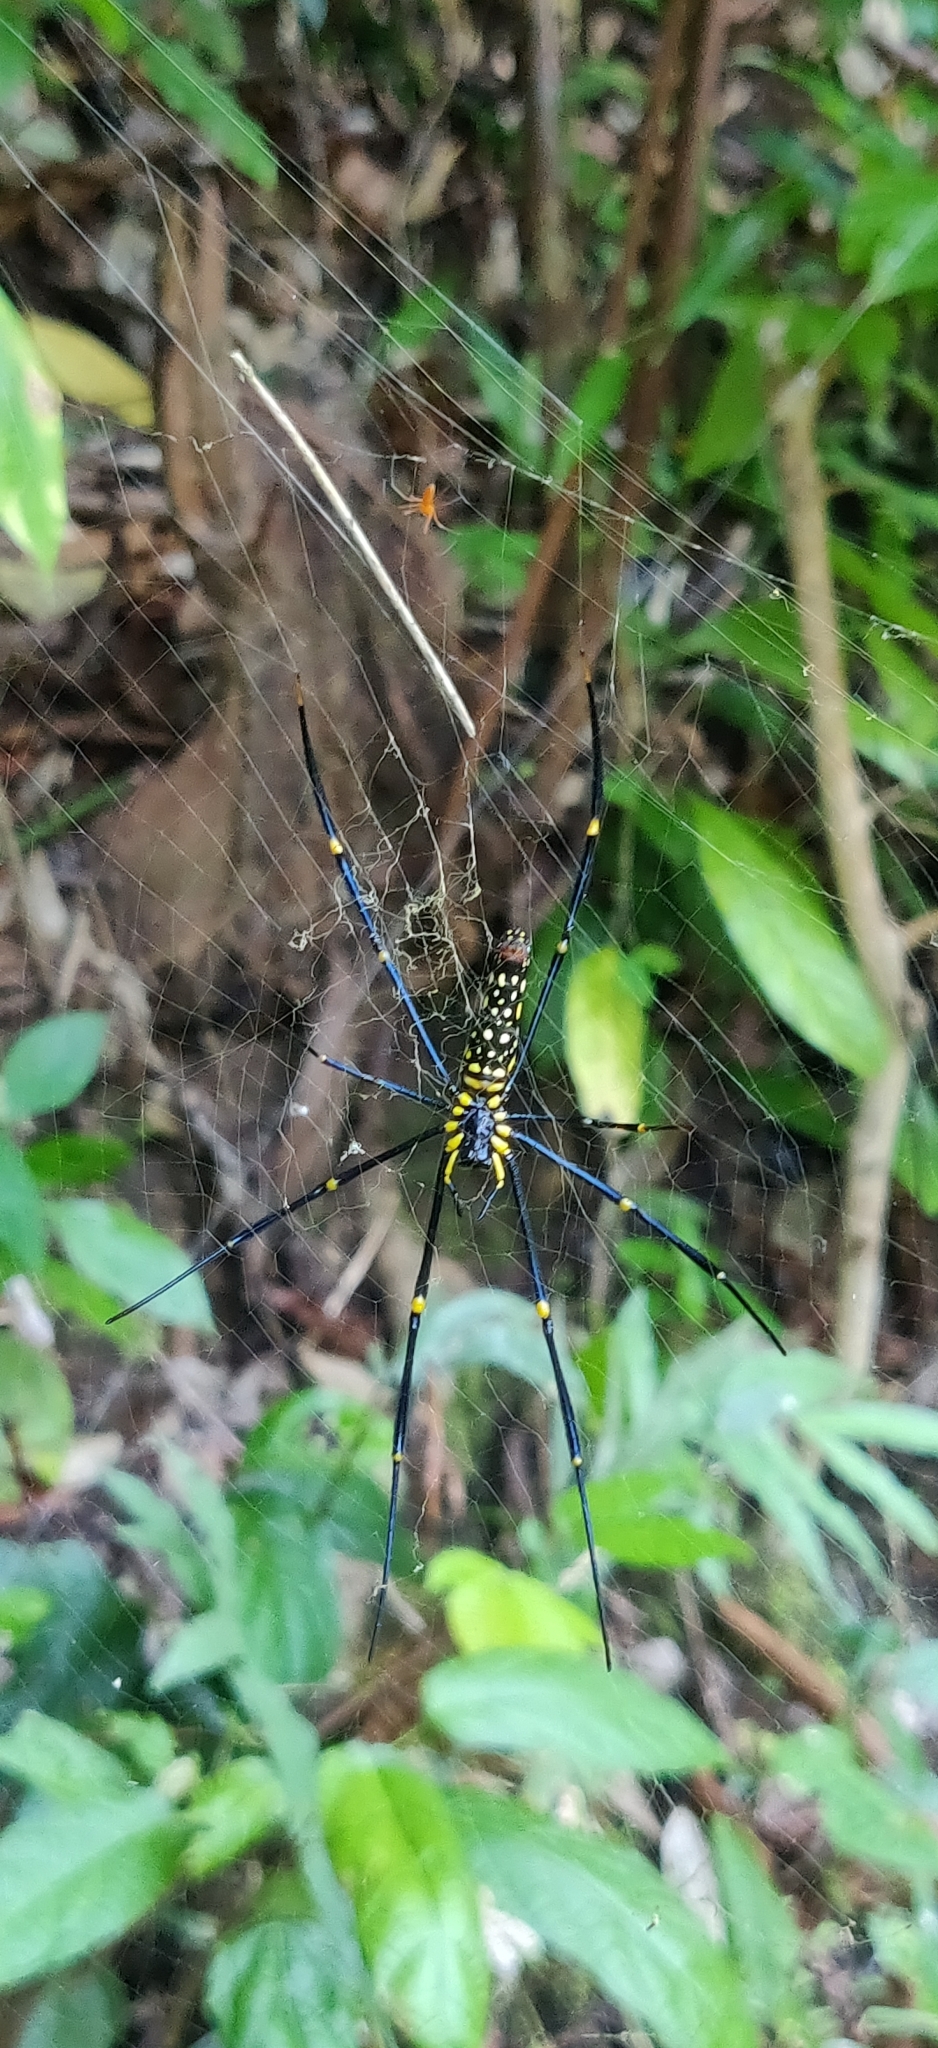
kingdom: Animalia
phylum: Arthropoda
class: Arachnida
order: Araneae
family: Araneidae
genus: Nephila
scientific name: Nephila pilipes
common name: Giant golden orb weaver
